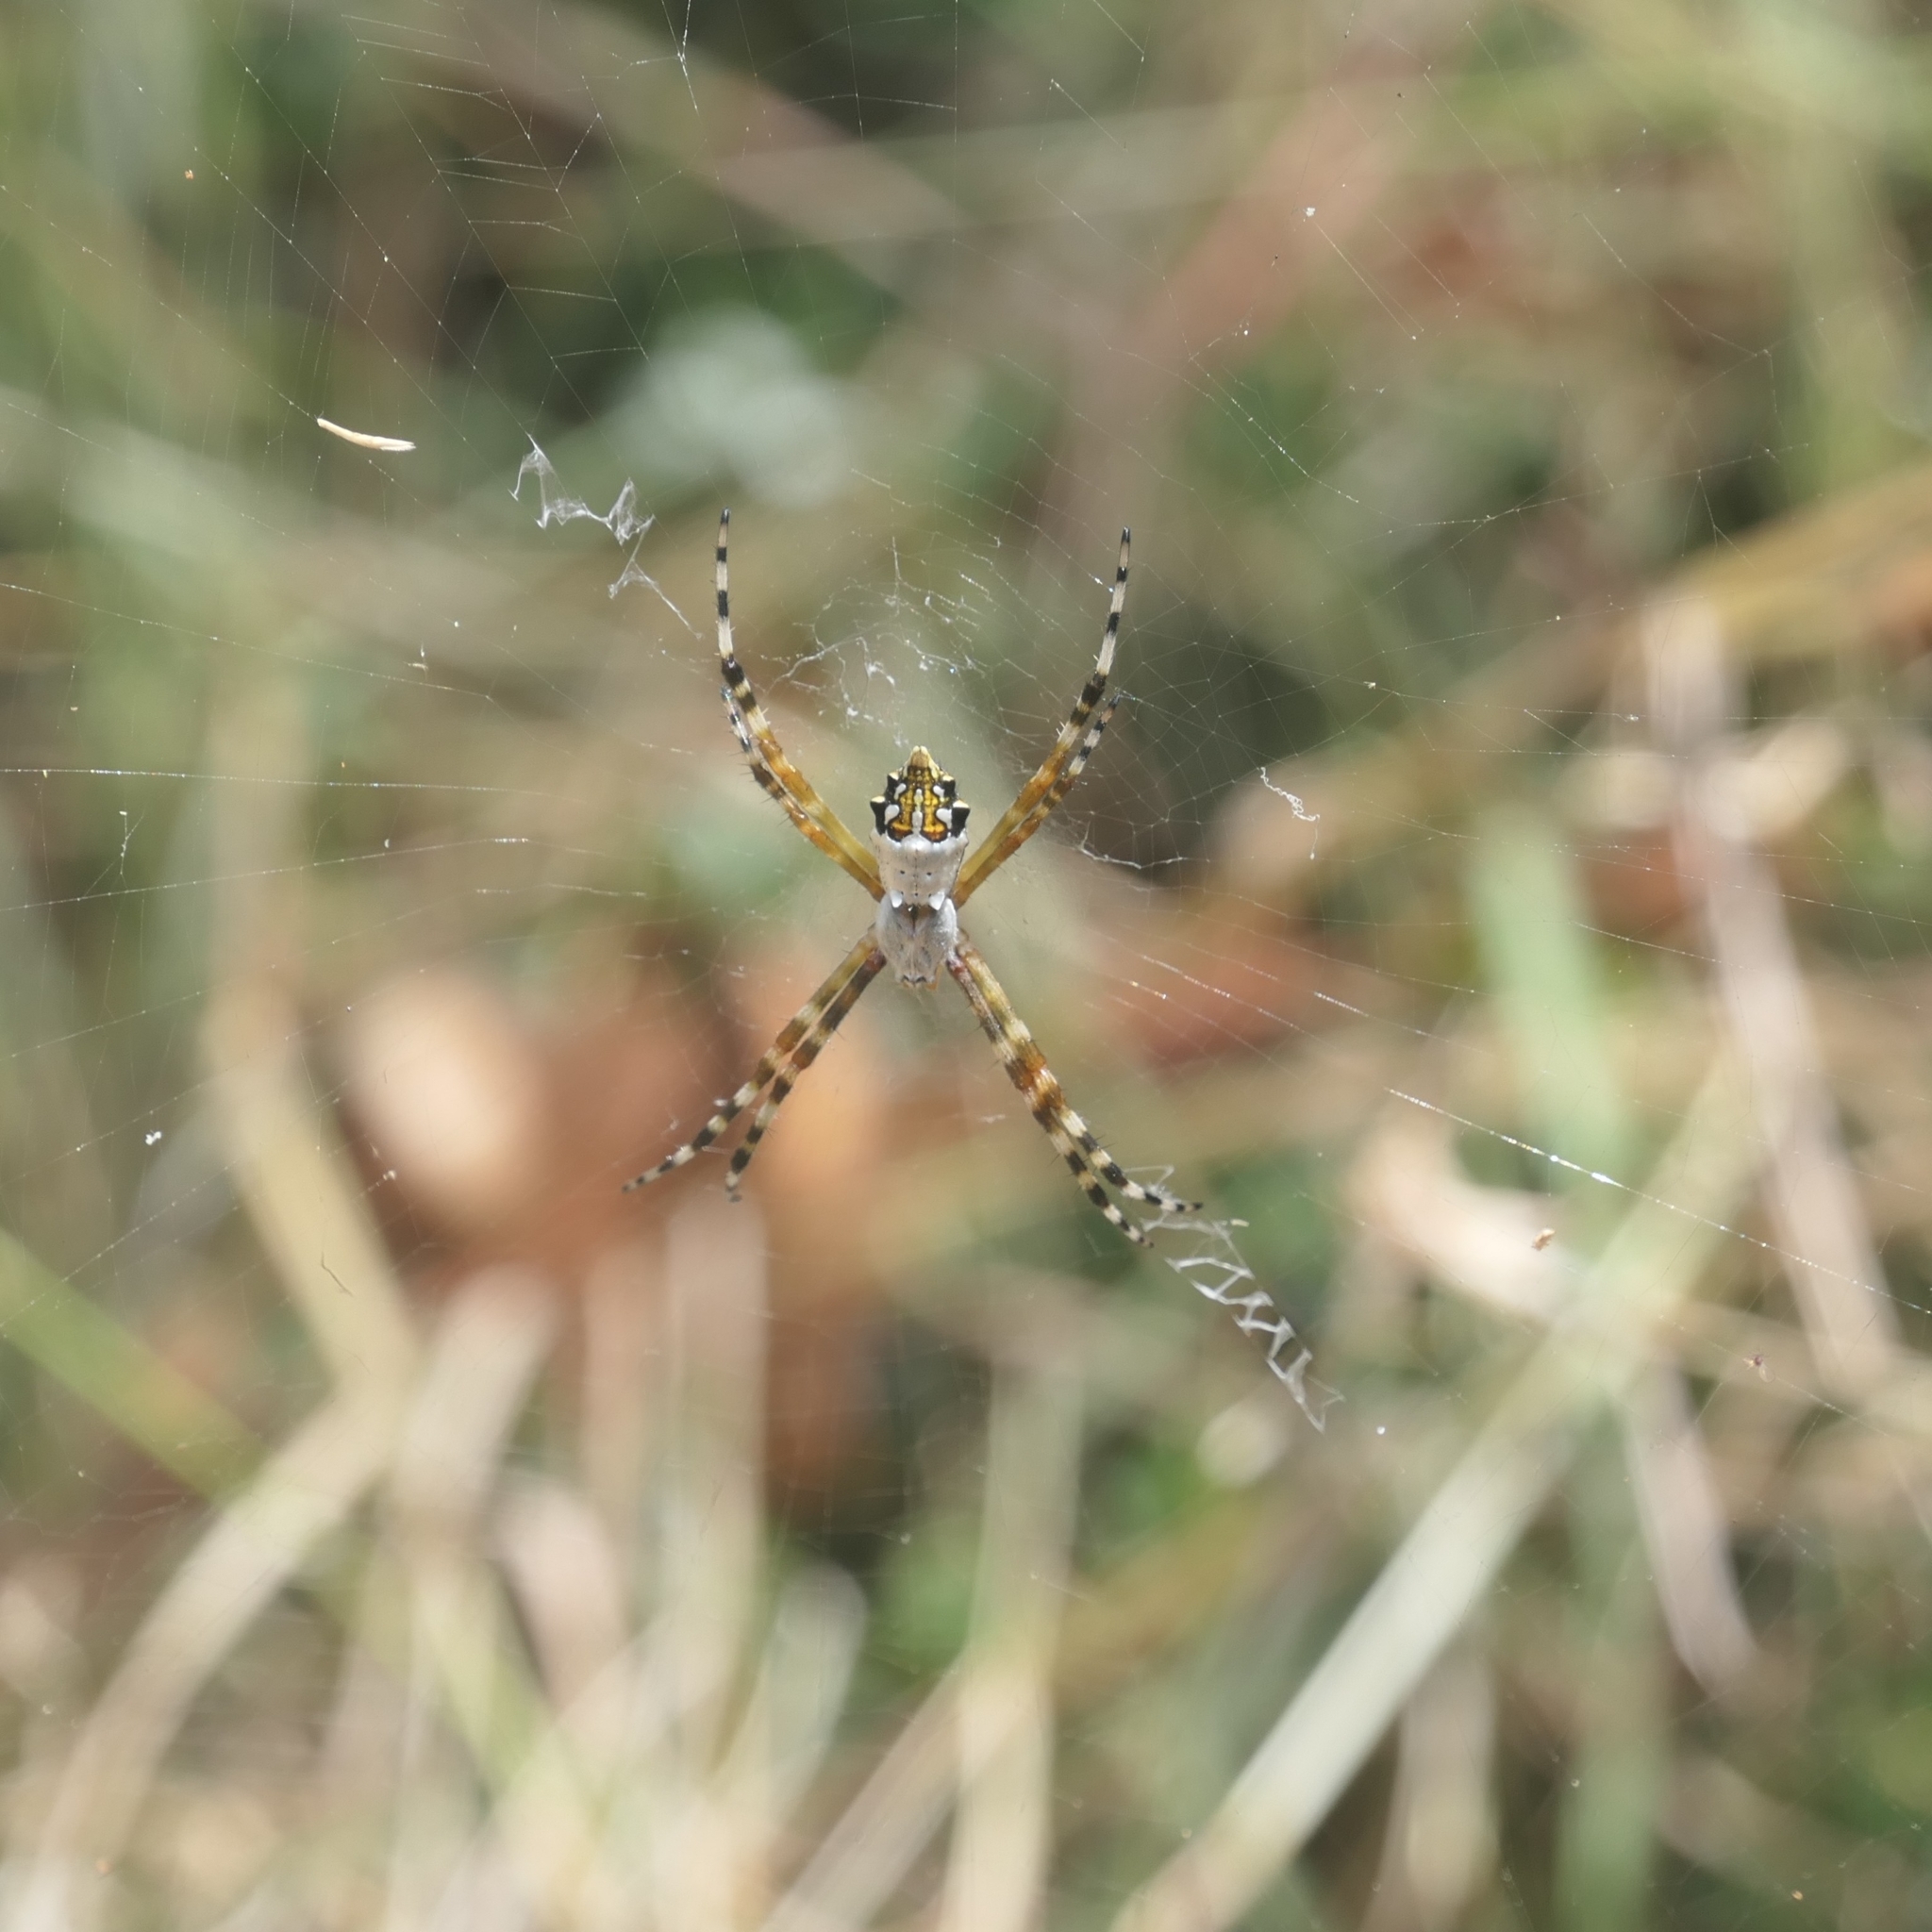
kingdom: Animalia
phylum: Arthropoda
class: Arachnida
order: Araneae
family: Araneidae
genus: Argiope
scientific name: Argiope argentata
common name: Orb weavers
